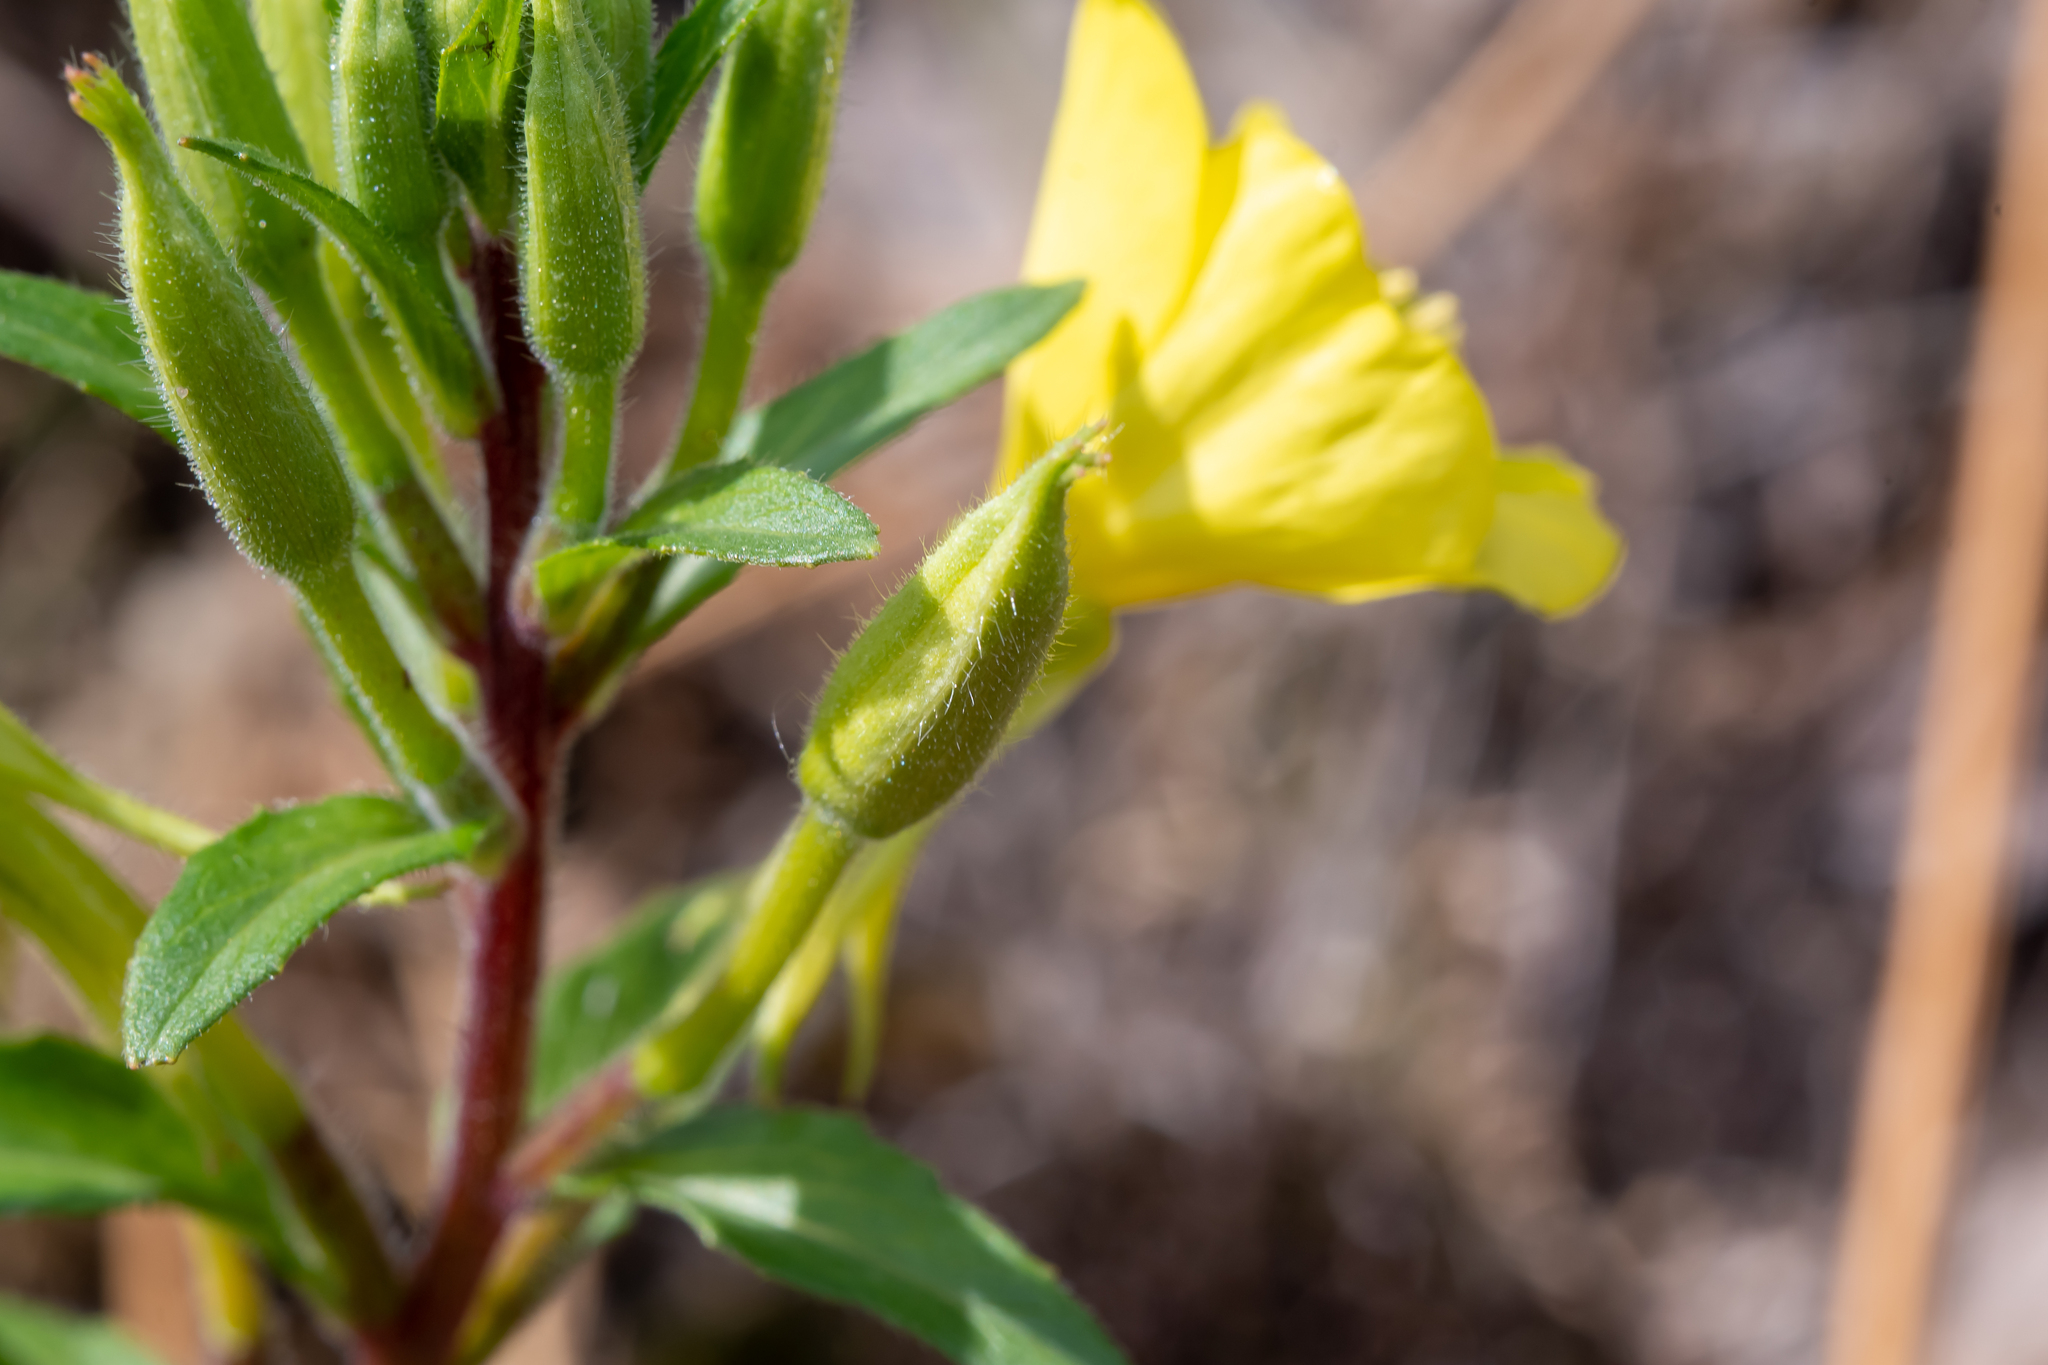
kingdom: Plantae
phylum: Tracheophyta
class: Magnoliopsida
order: Myrtales
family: Onagraceae
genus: Oenothera
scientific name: Oenothera rubricaulis
